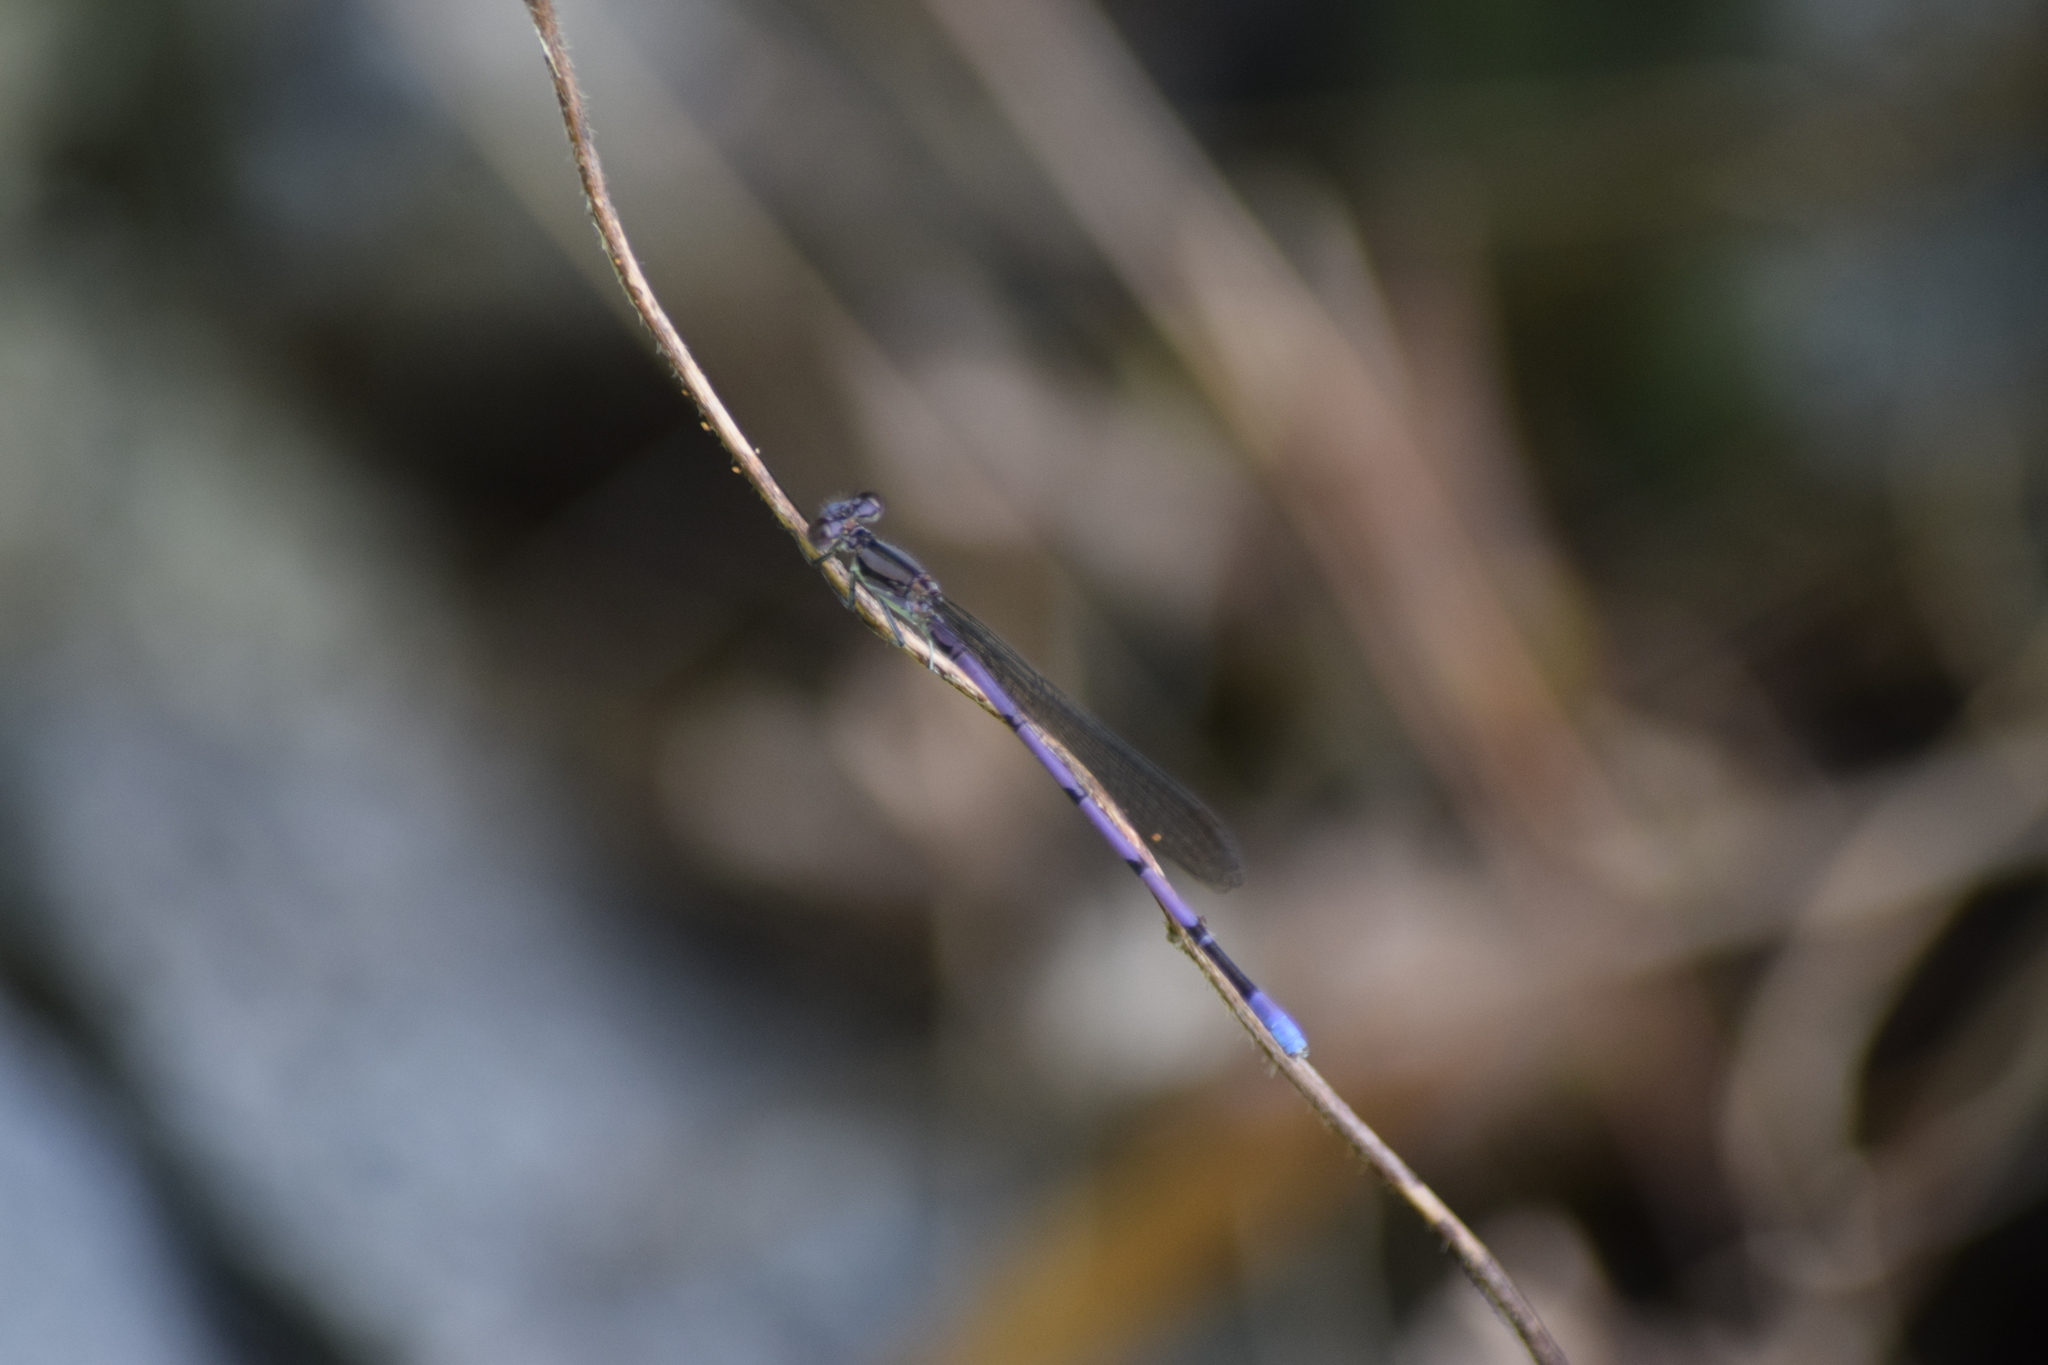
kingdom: Animalia
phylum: Arthropoda
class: Insecta
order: Odonata
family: Coenagrionidae
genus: Argia
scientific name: Argia fumipennis
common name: Variable dancer
